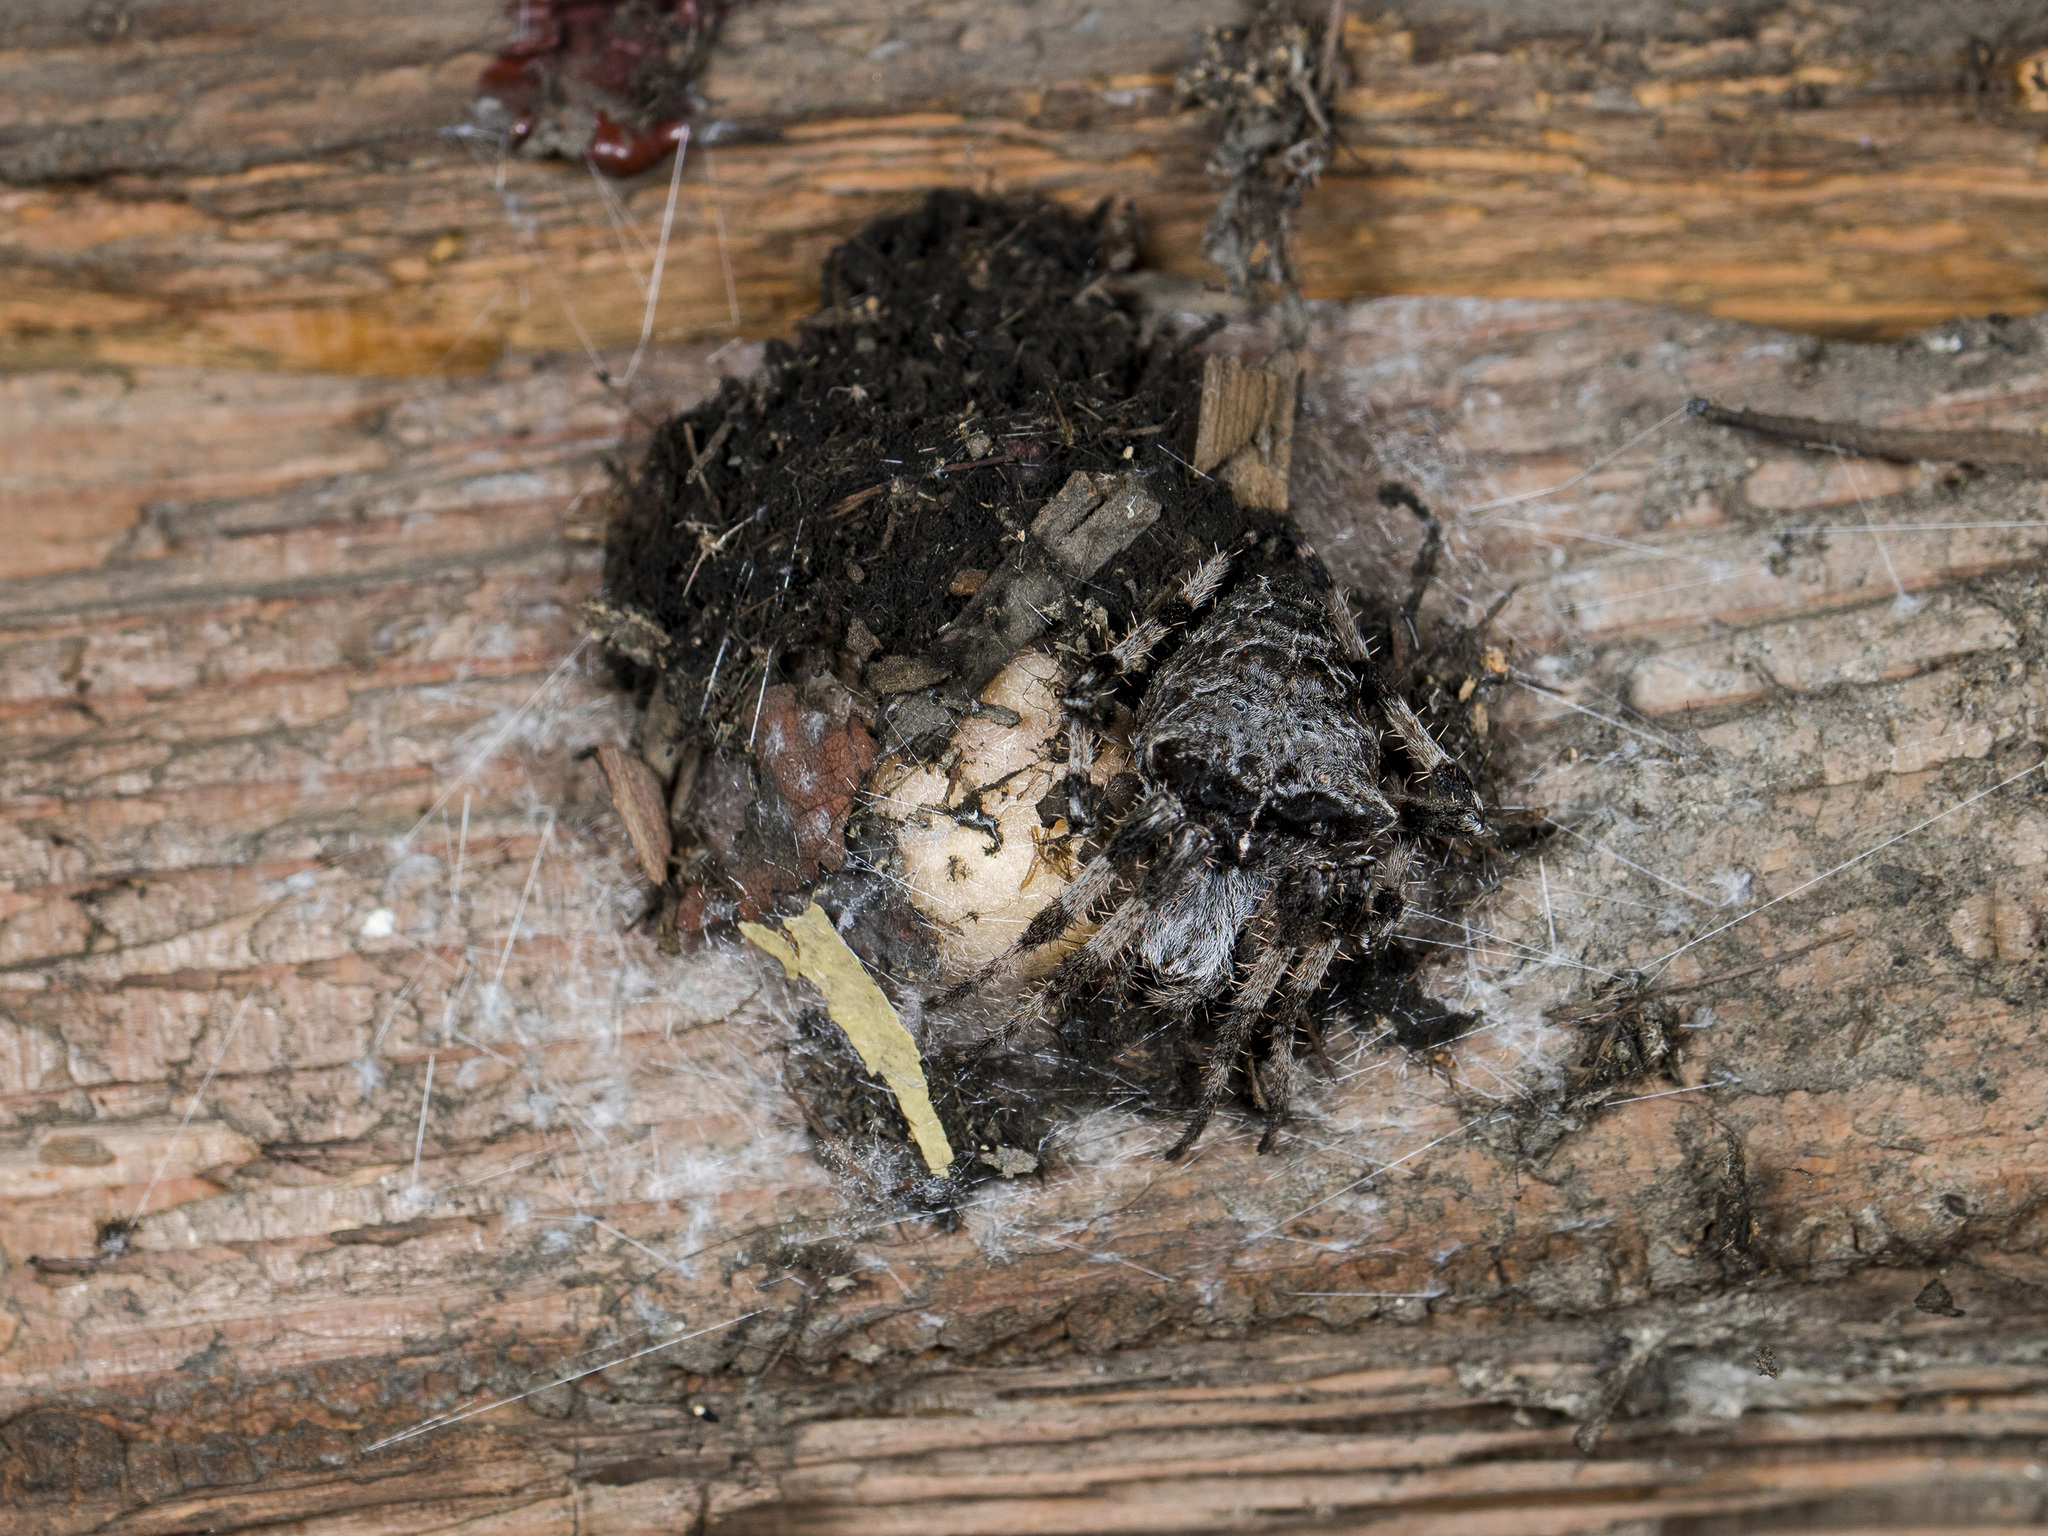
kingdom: Animalia
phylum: Arthropoda
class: Arachnida
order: Araneae
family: Araneidae
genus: Araneus
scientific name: Araneus tartaricus
